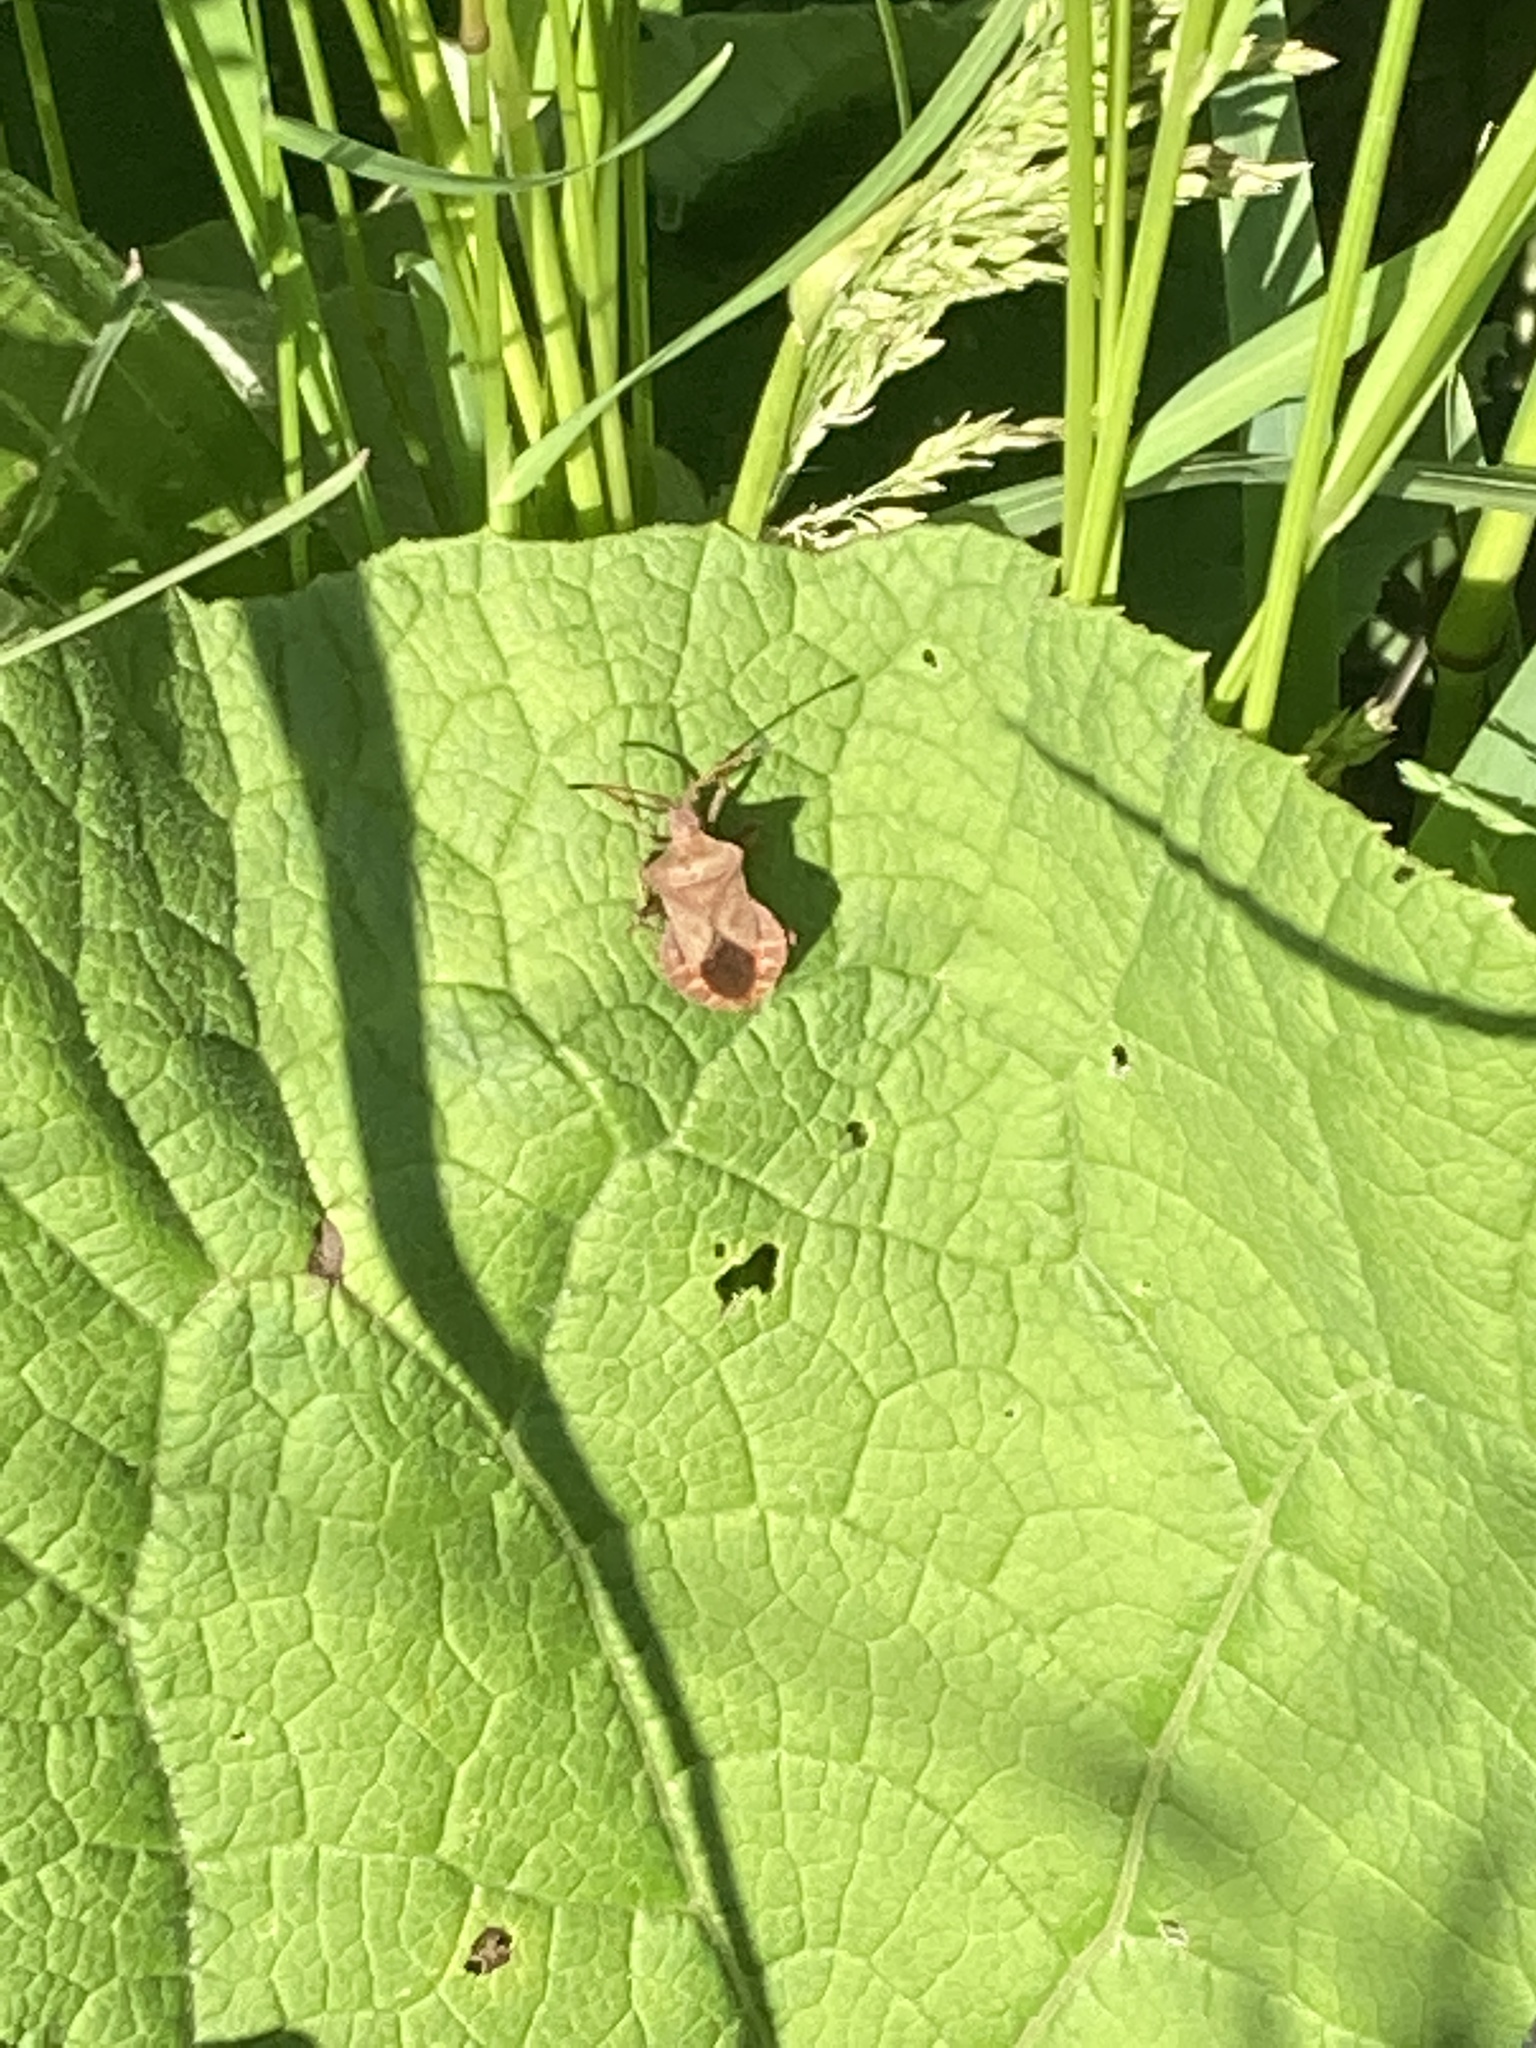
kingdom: Animalia
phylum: Arthropoda
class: Insecta
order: Hemiptera
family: Coreidae
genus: Coreus
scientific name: Coreus marginatus
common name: Dock bug
